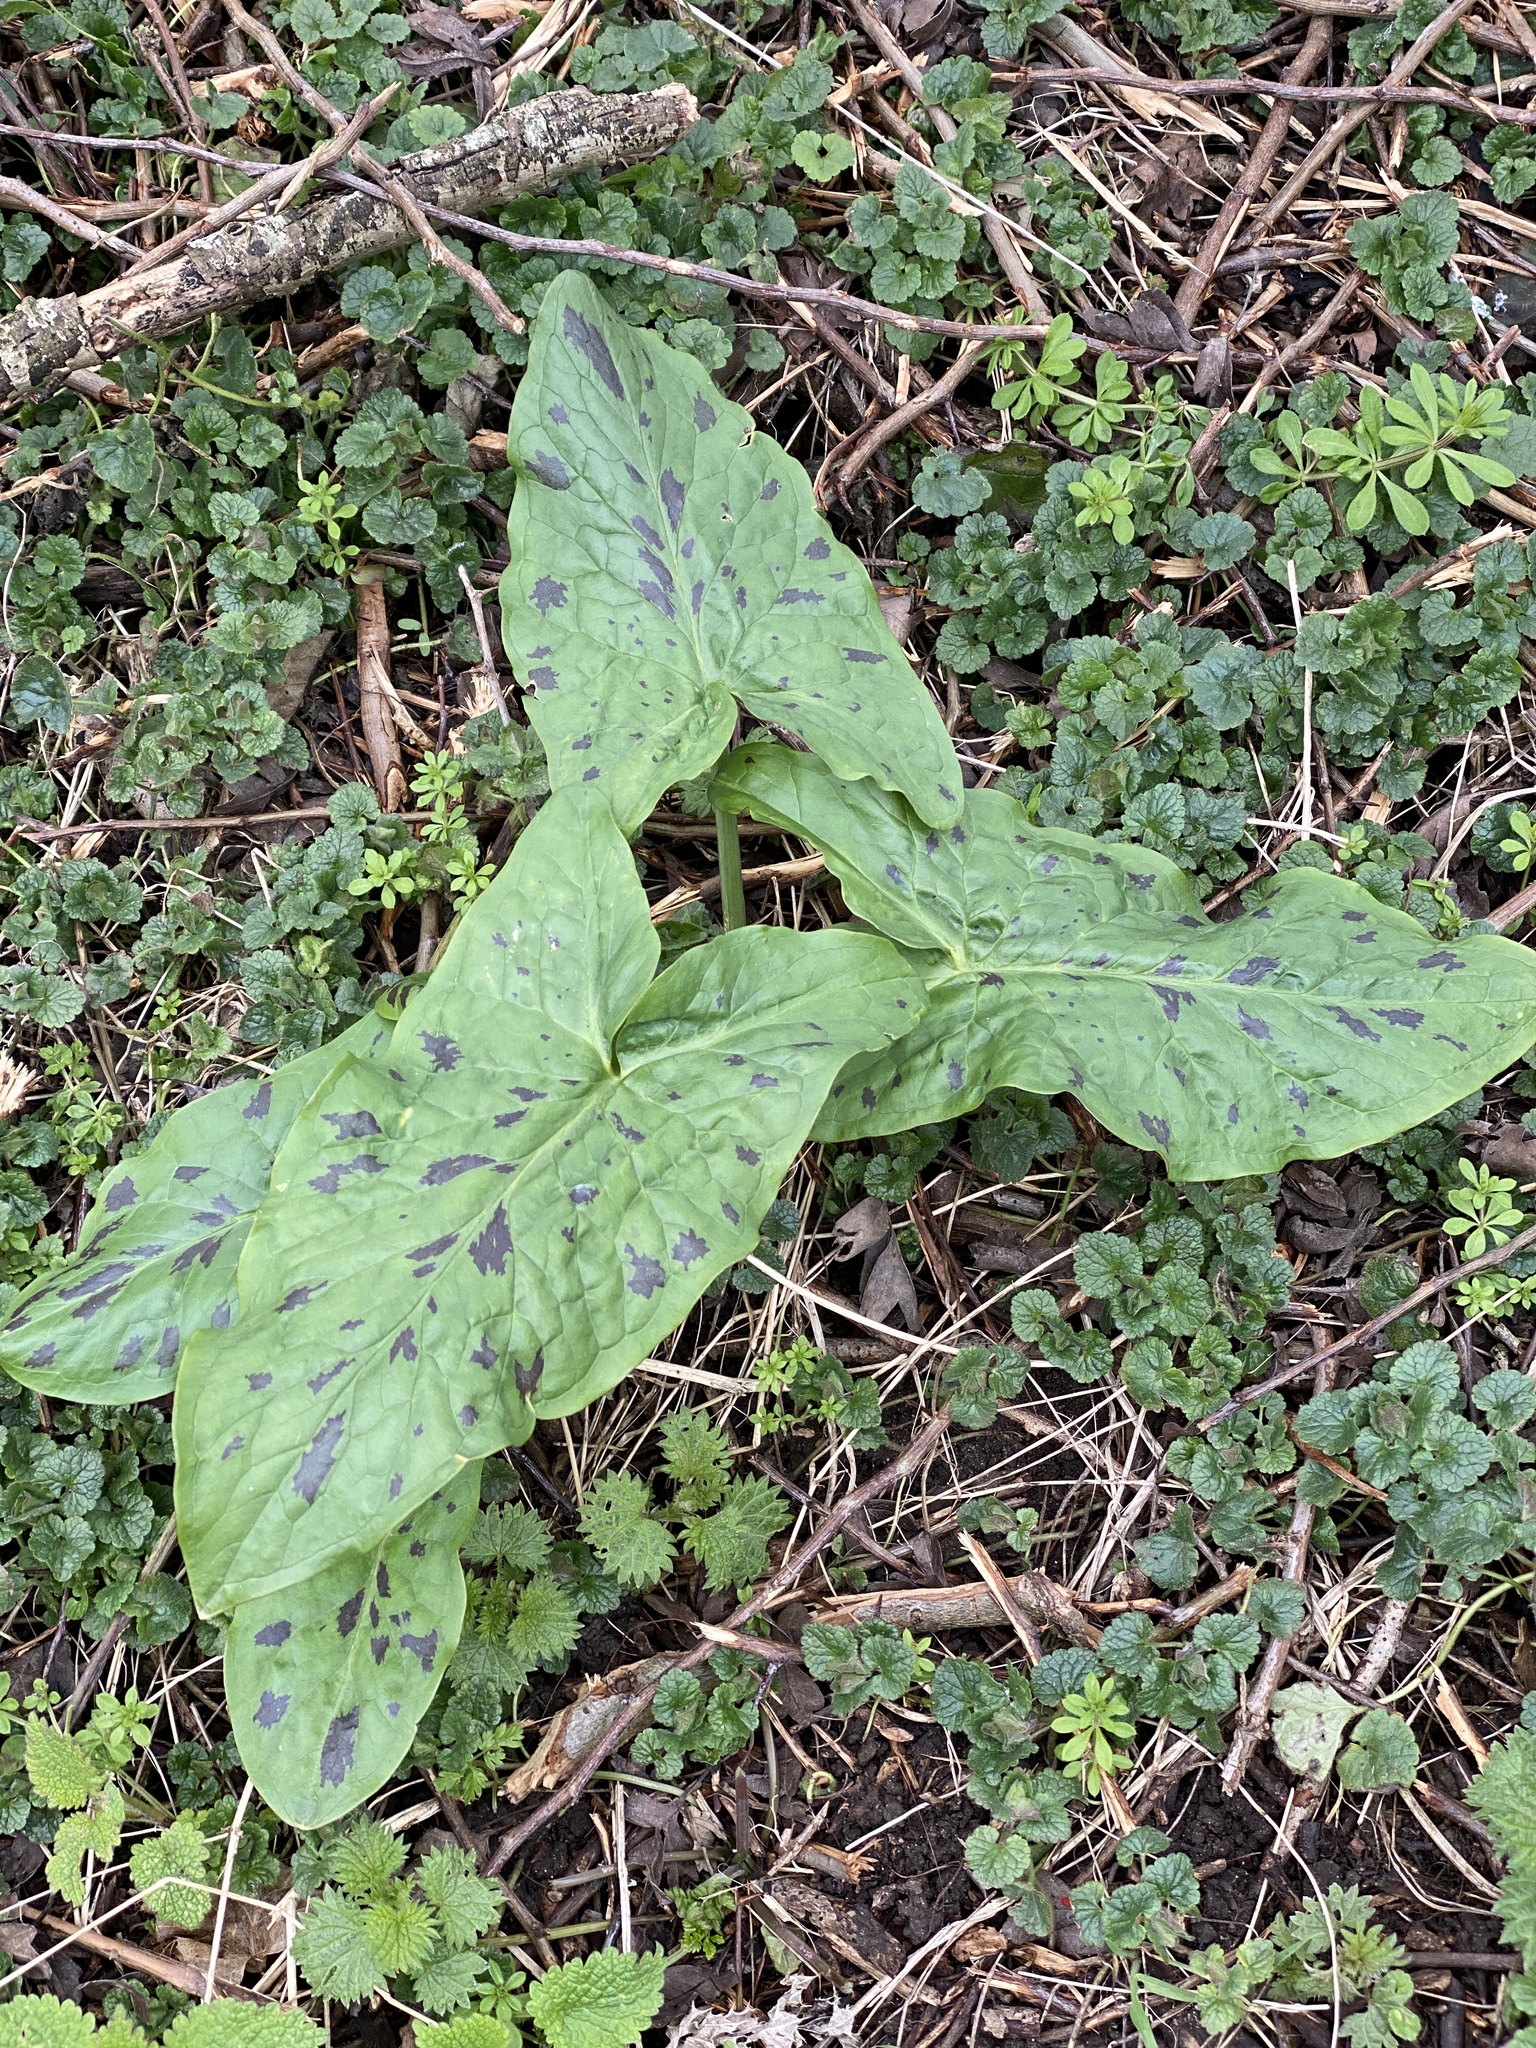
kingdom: Plantae
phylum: Tracheophyta
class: Liliopsida
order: Alismatales
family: Araceae
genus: Arum
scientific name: Arum maculatum
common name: Lords-and-ladies
